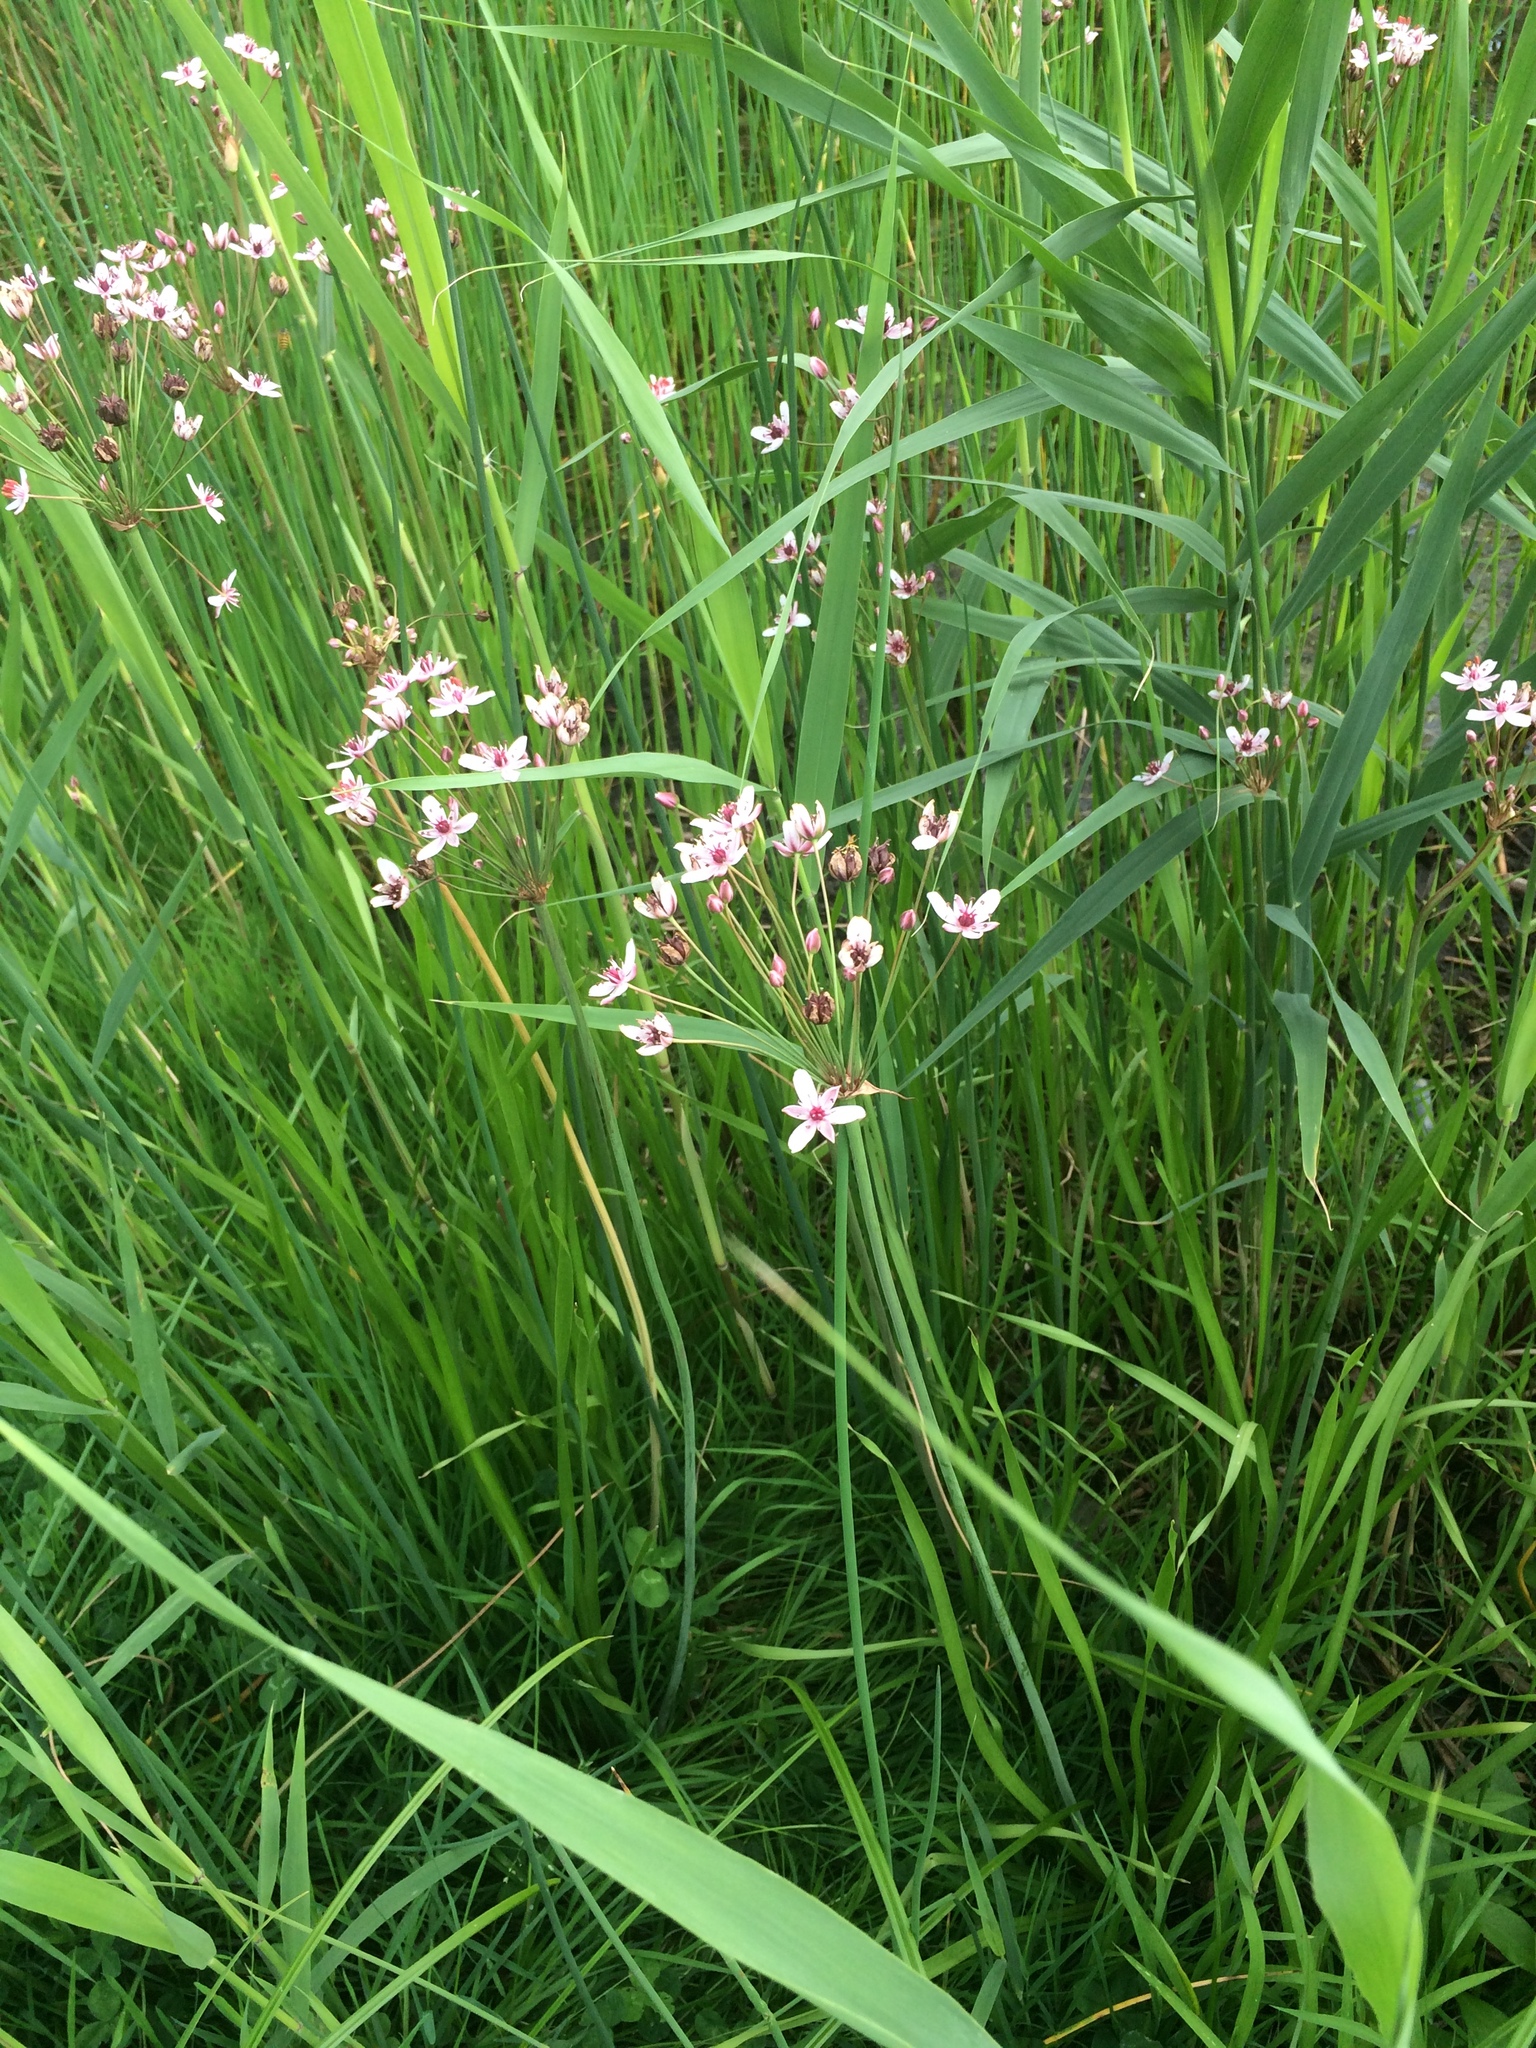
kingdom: Plantae
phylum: Tracheophyta
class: Liliopsida
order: Alismatales
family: Butomaceae
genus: Butomus
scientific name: Butomus umbellatus
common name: Flowering-rush
